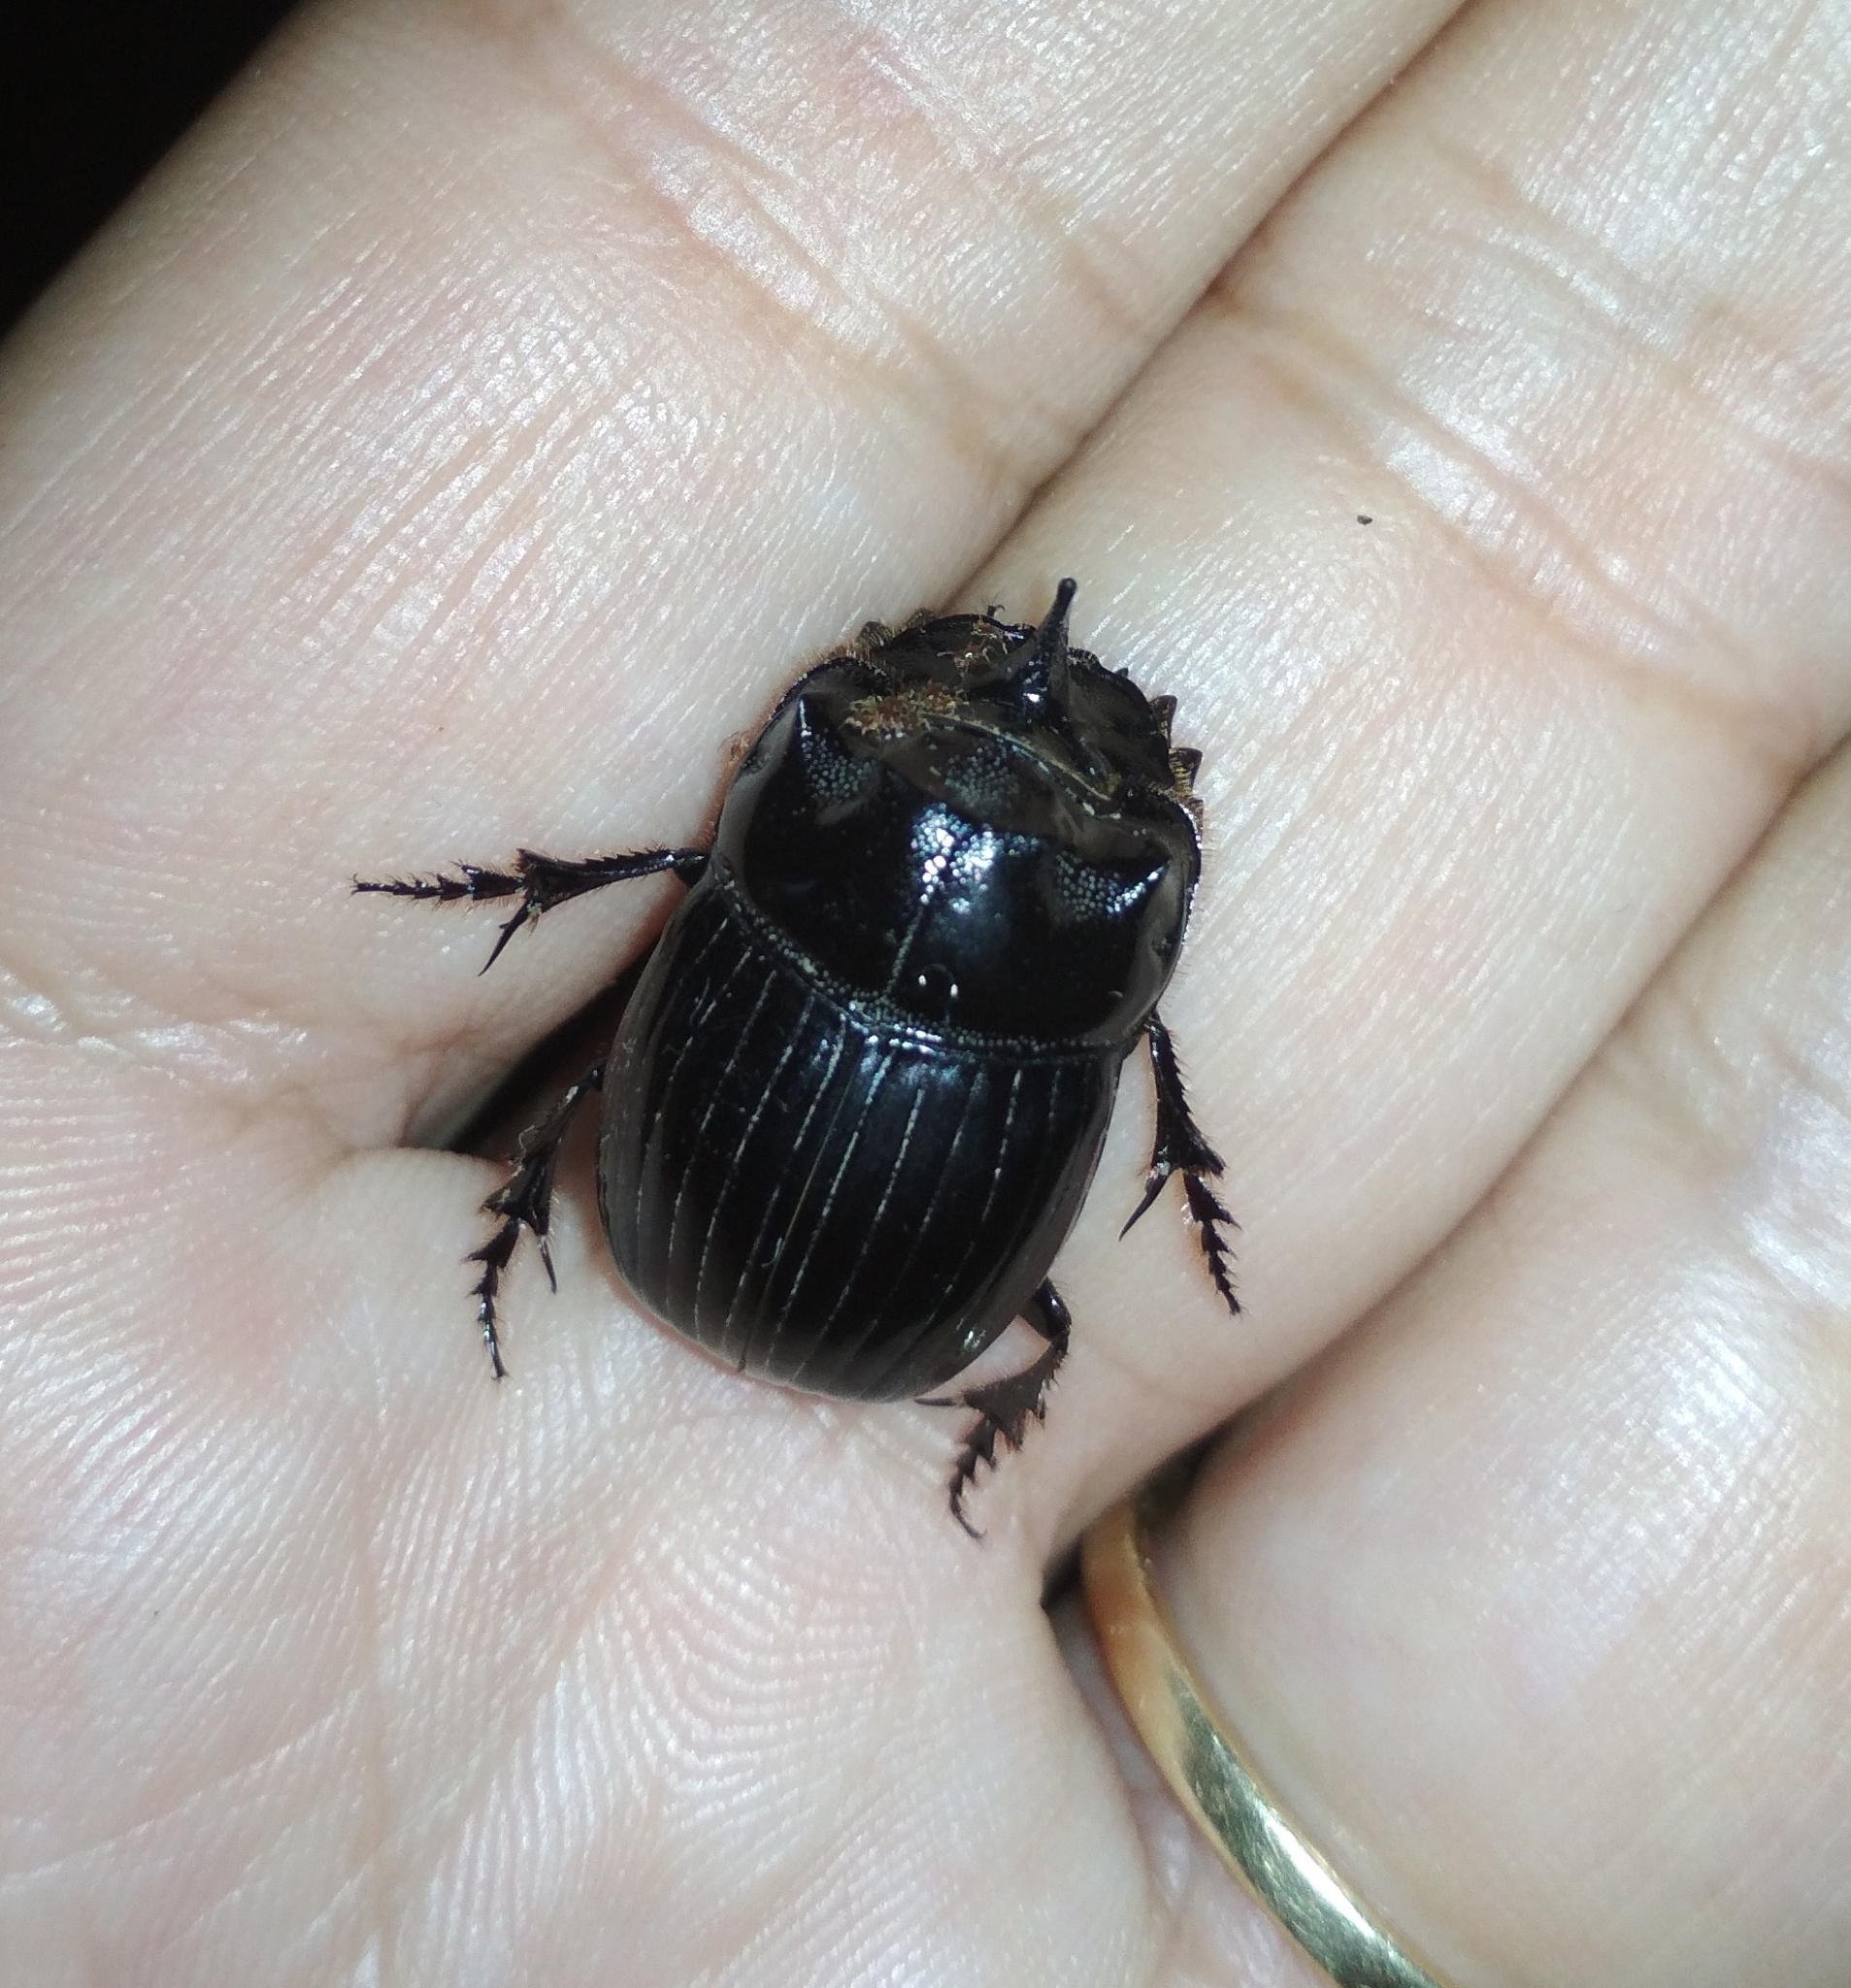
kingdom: Animalia
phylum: Arthropoda
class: Insecta
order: Coleoptera
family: Scarabaeidae
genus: Copris
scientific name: Copris lunaris
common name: Horned dung beetle
